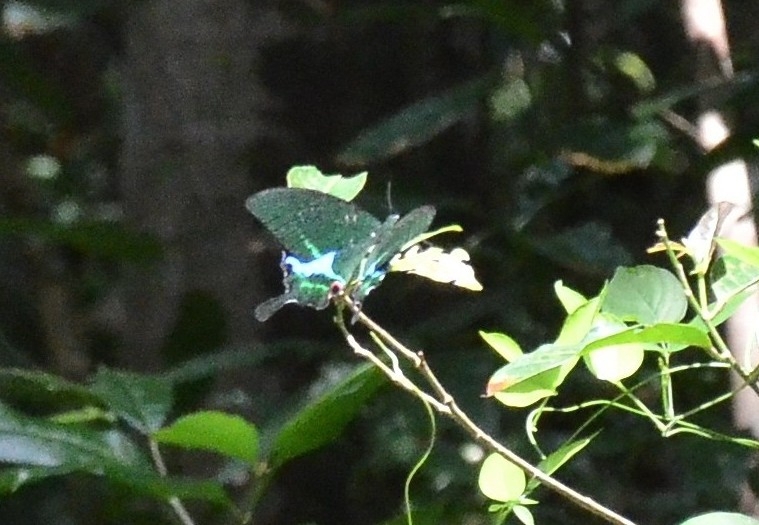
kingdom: Animalia
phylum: Arthropoda
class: Insecta
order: Lepidoptera
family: Papilionidae
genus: Papilio
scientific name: Papilio paris
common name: Paris peacock
